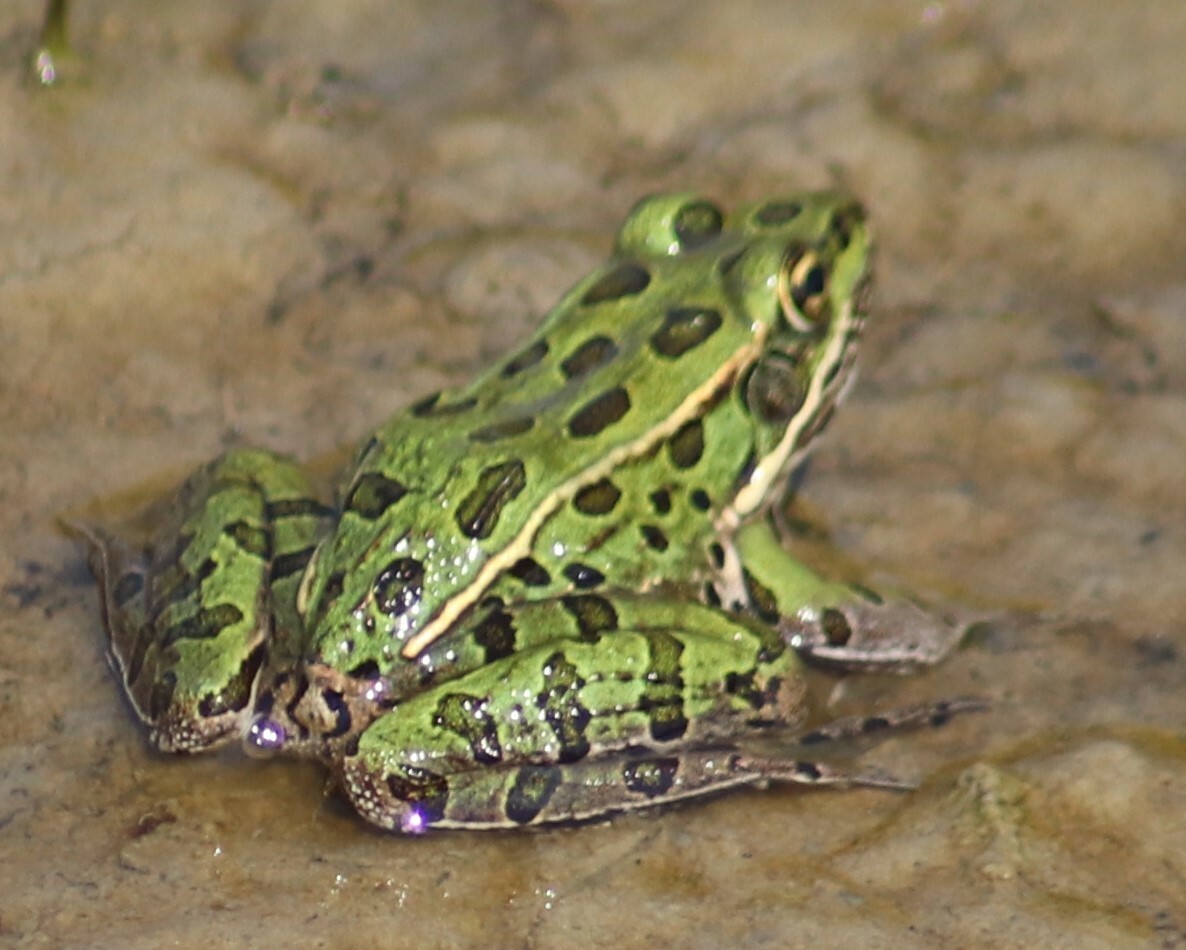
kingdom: Animalia
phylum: Chordata
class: Amphibia
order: Anura
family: Ranidae
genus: Lithobates
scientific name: Lithobates pipiens
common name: Northern leopard frog
